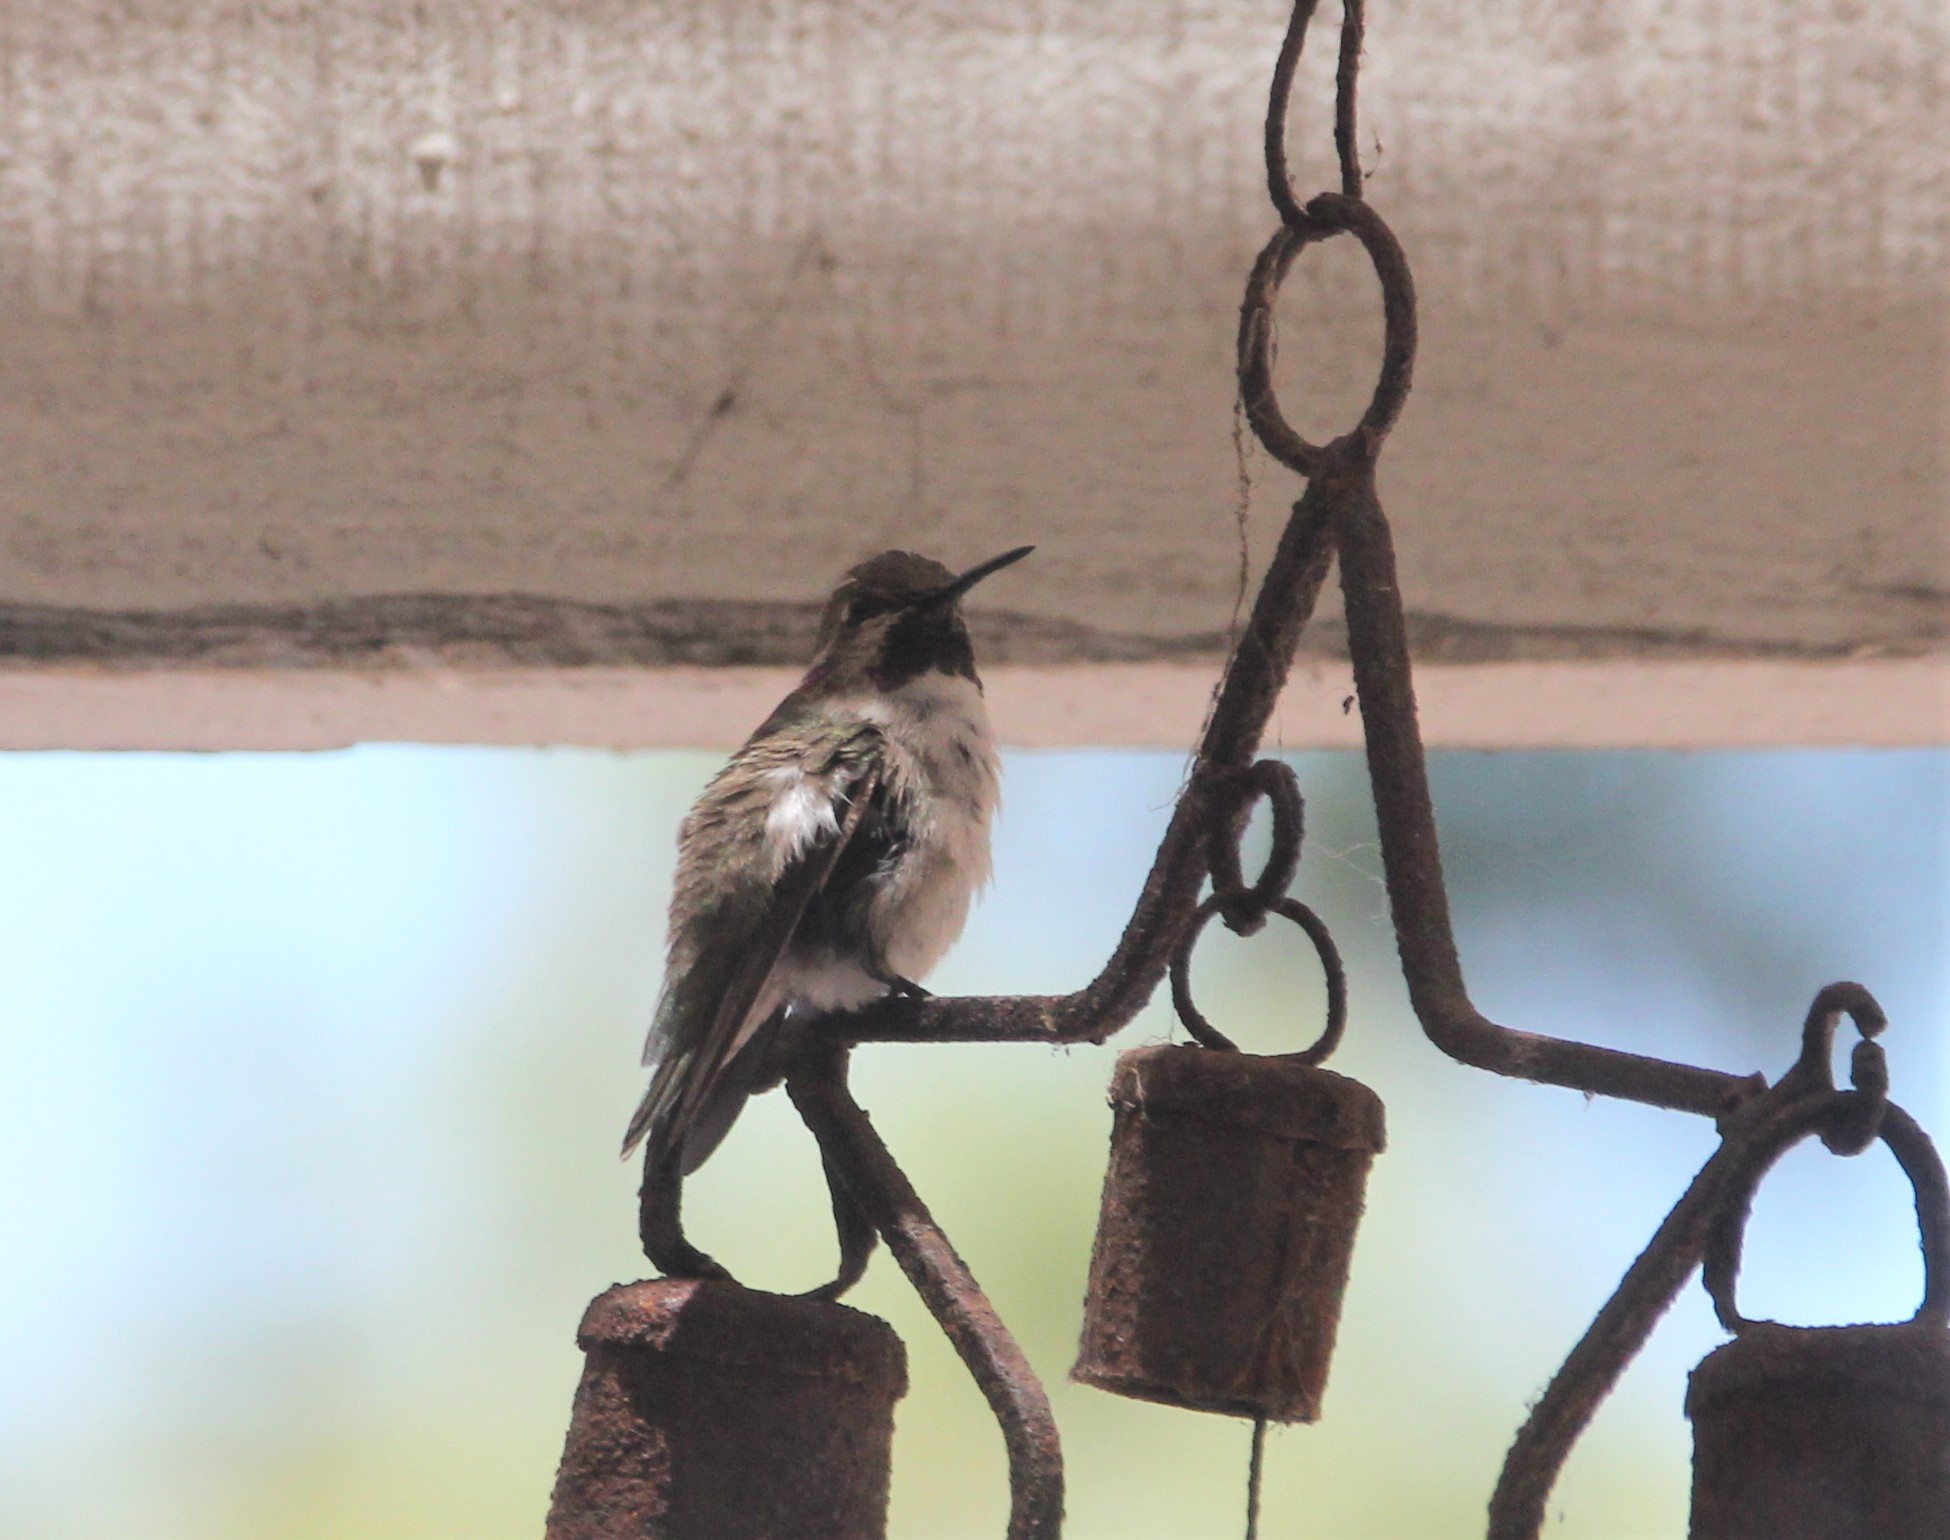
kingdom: Animalia
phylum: Chordata
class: Aves
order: Apodiformes
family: Trochilidae
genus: Calypte
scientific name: Calypte costae
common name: Costa's hummingbird
